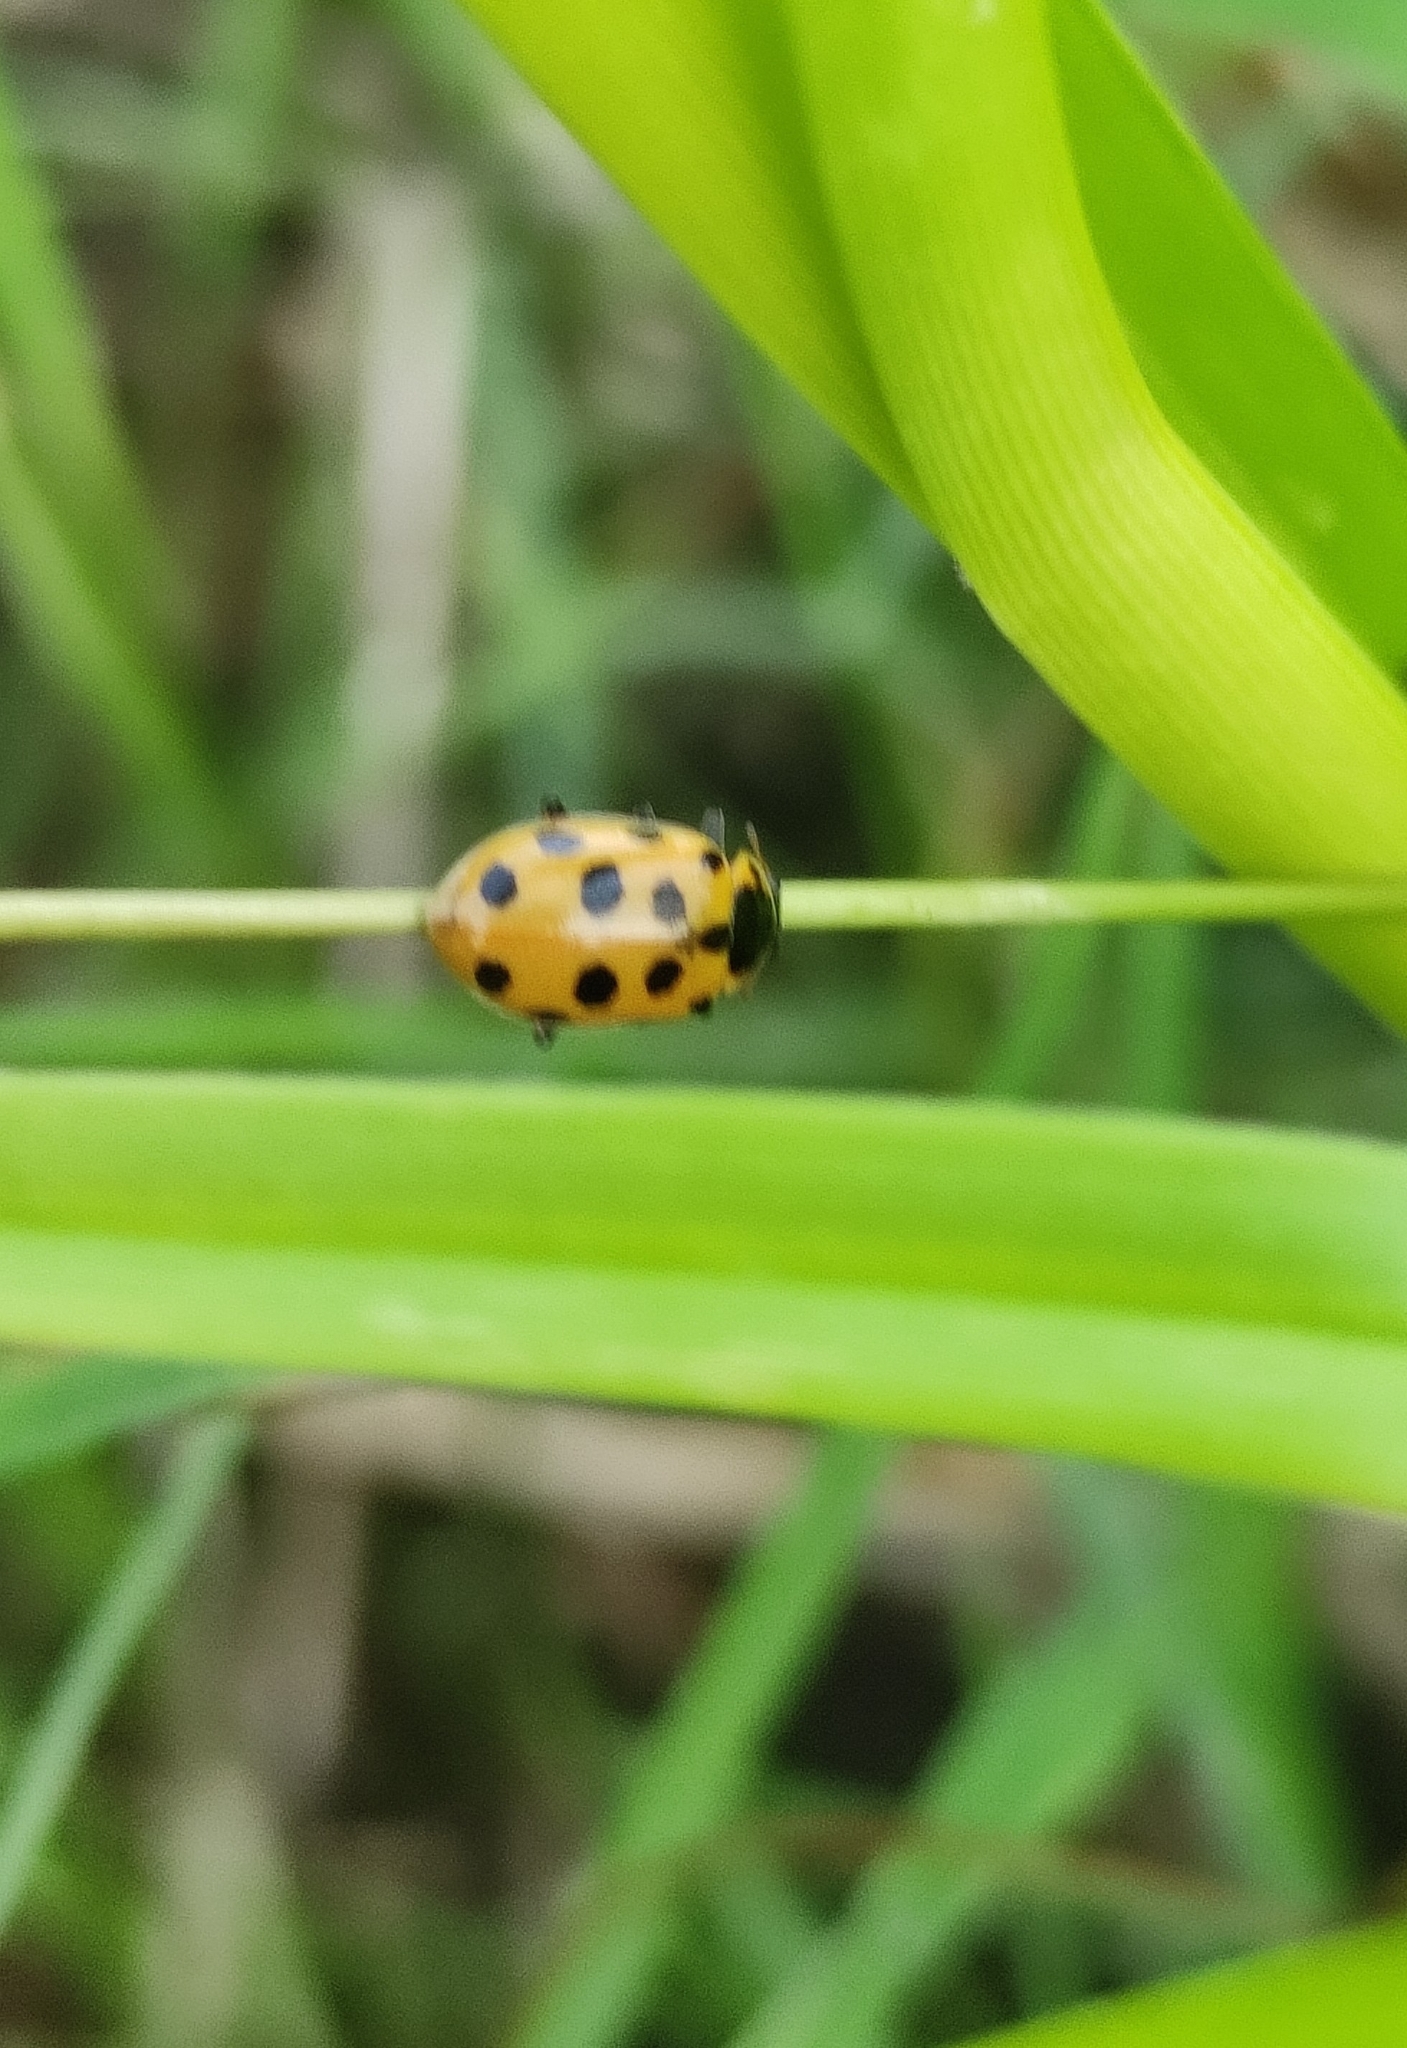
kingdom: Animalia
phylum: Arthropoda
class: Insecta
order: Coleoptera
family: Coccinellidae
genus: Hippodamia
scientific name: Hippodamia tredecimpunctata
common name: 13-spot ladybird
